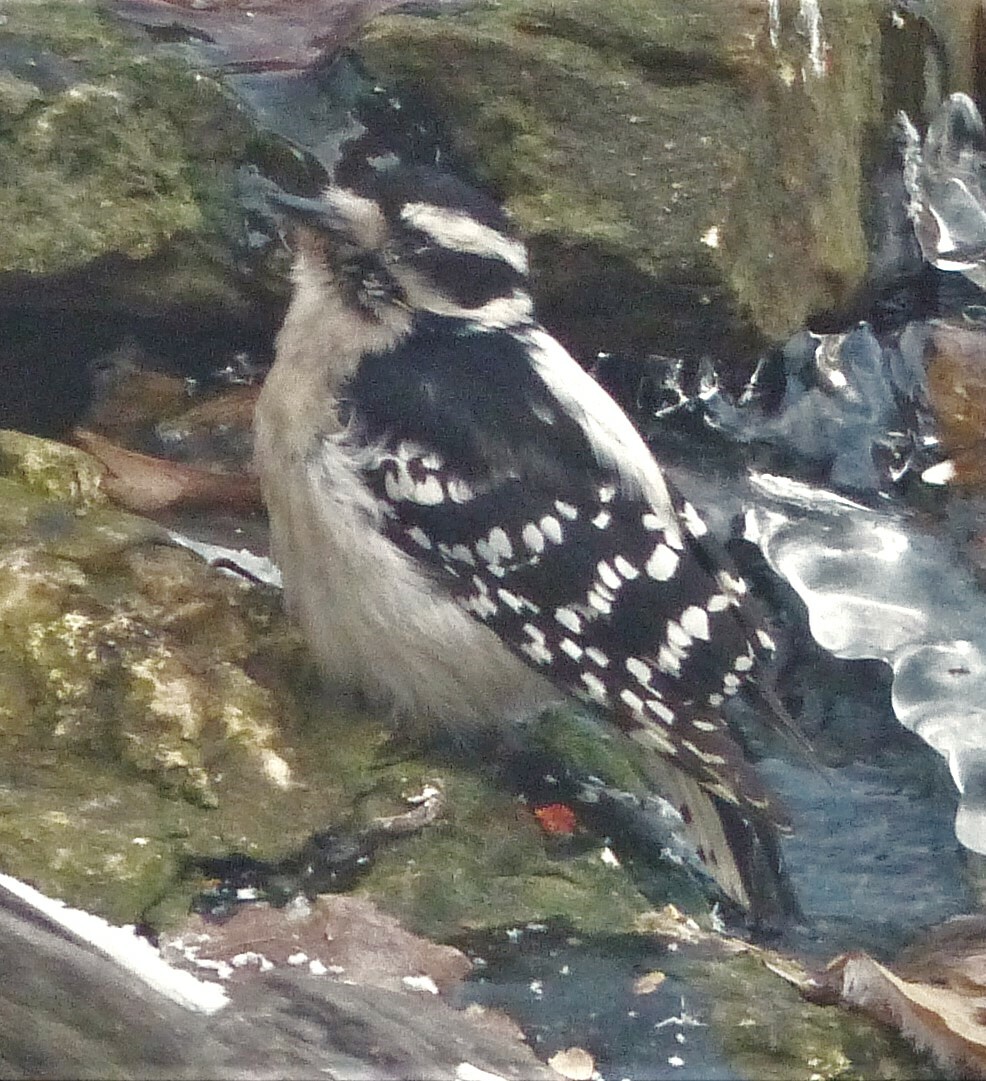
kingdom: Animalia
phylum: Chordata
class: Aves
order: Piciformes
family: Picidae
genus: Dryobates
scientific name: Dryobates pubescens
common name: Downy woodpecker
